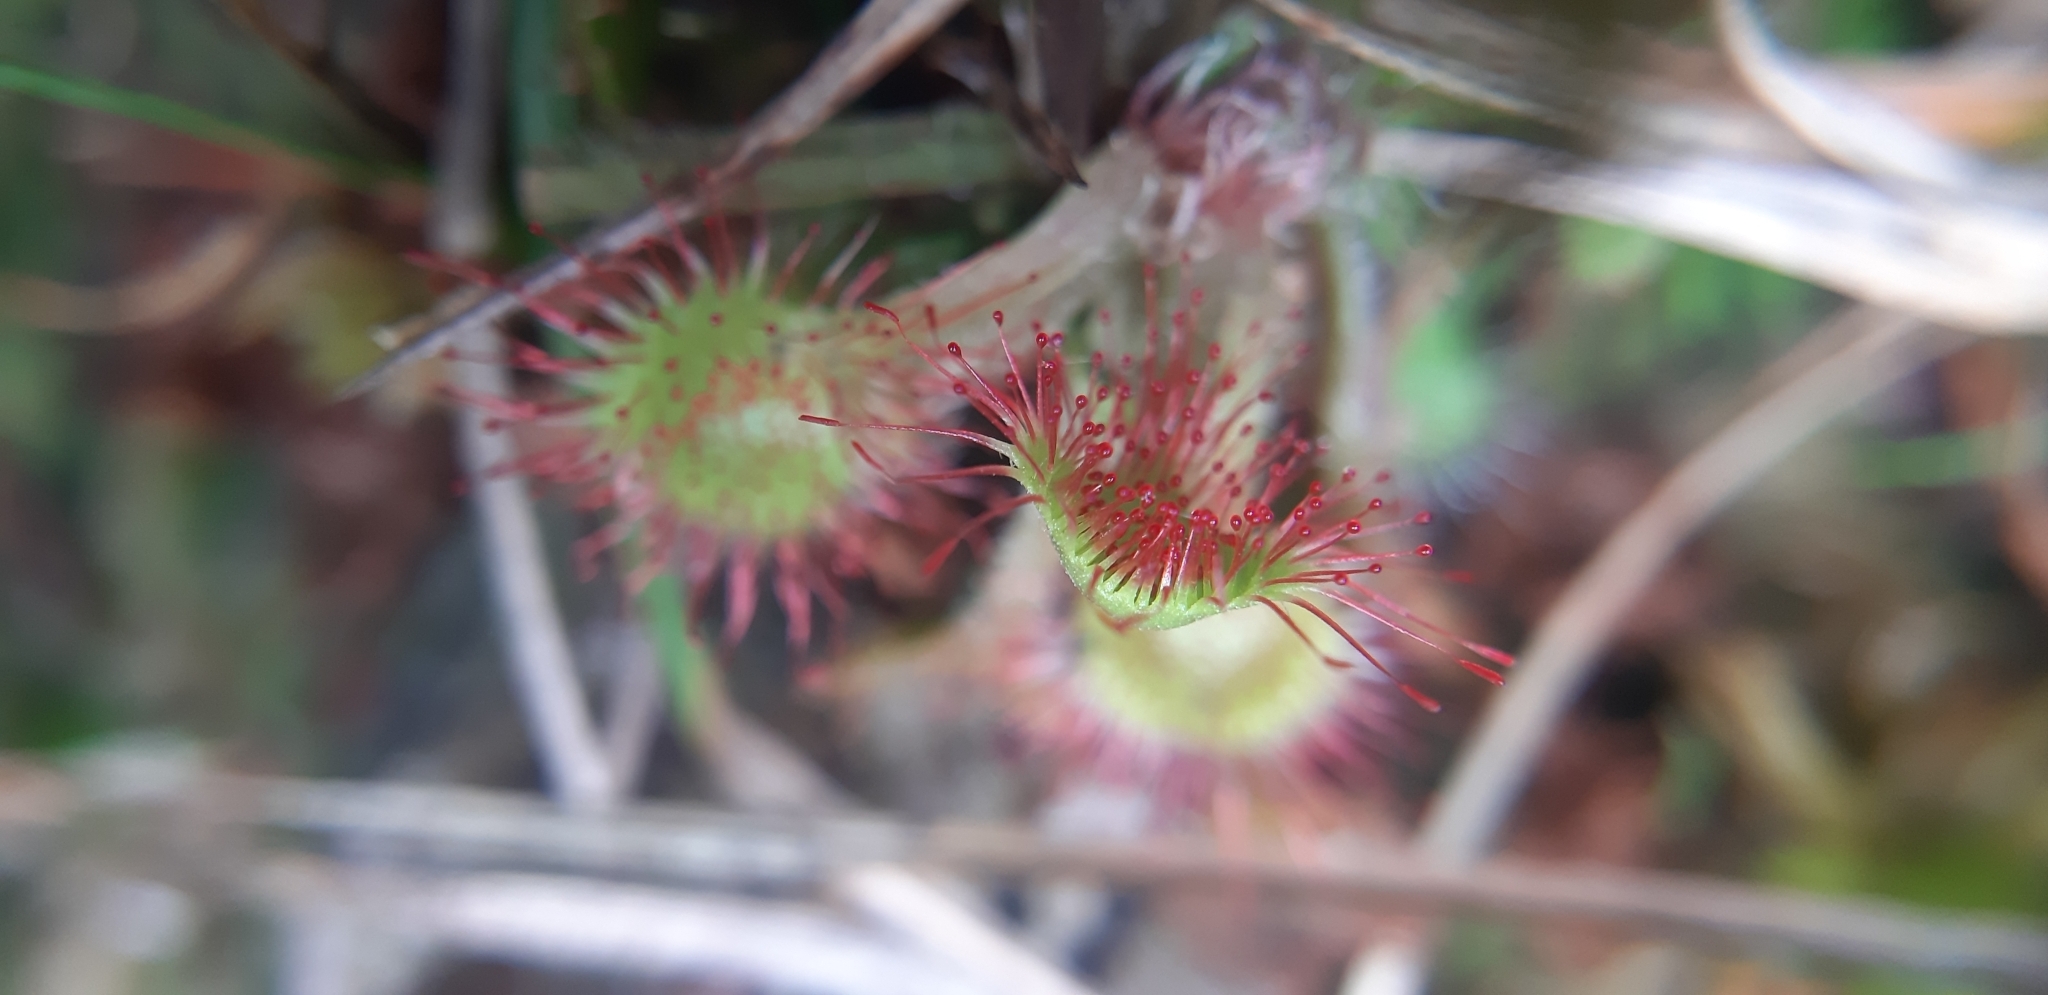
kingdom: Plantae
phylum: Tracheophyta
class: Magnoliopsida
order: Caryophyllales
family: Droseraceae
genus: Drosera
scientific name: Drosera rotundifolia
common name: Round-leaved sundew
